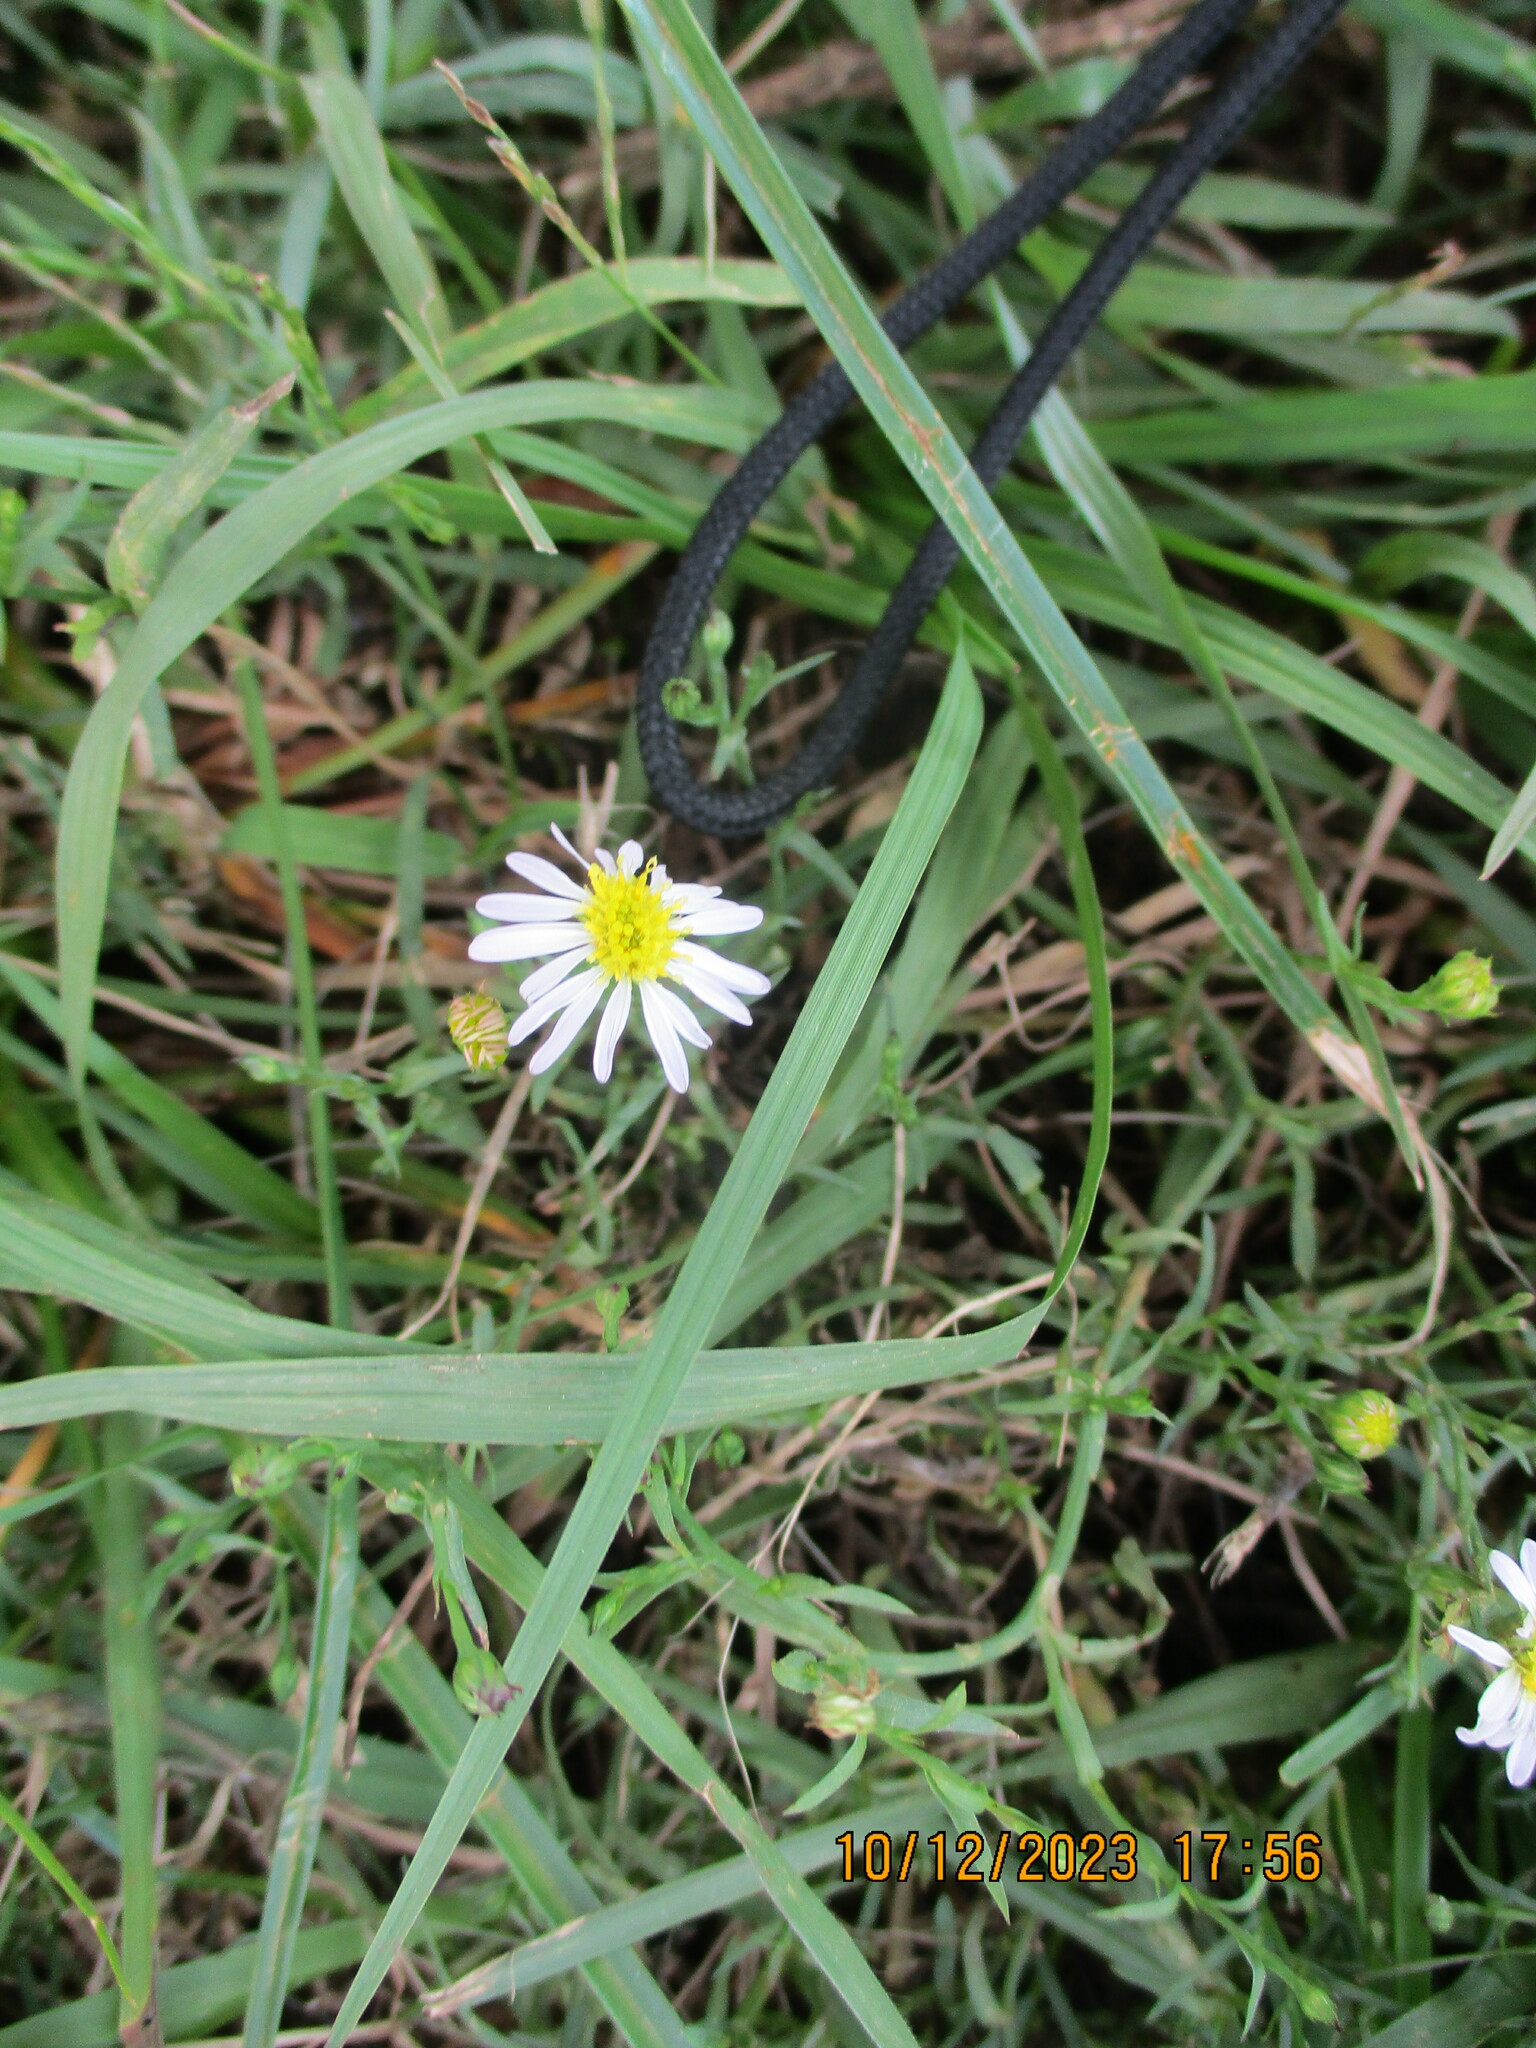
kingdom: Plantae
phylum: Tracheophyta
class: Magnoliopsida
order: Asterales
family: Asteraceae
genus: Symphyotrichum
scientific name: Symphyotrichum divaricatum
